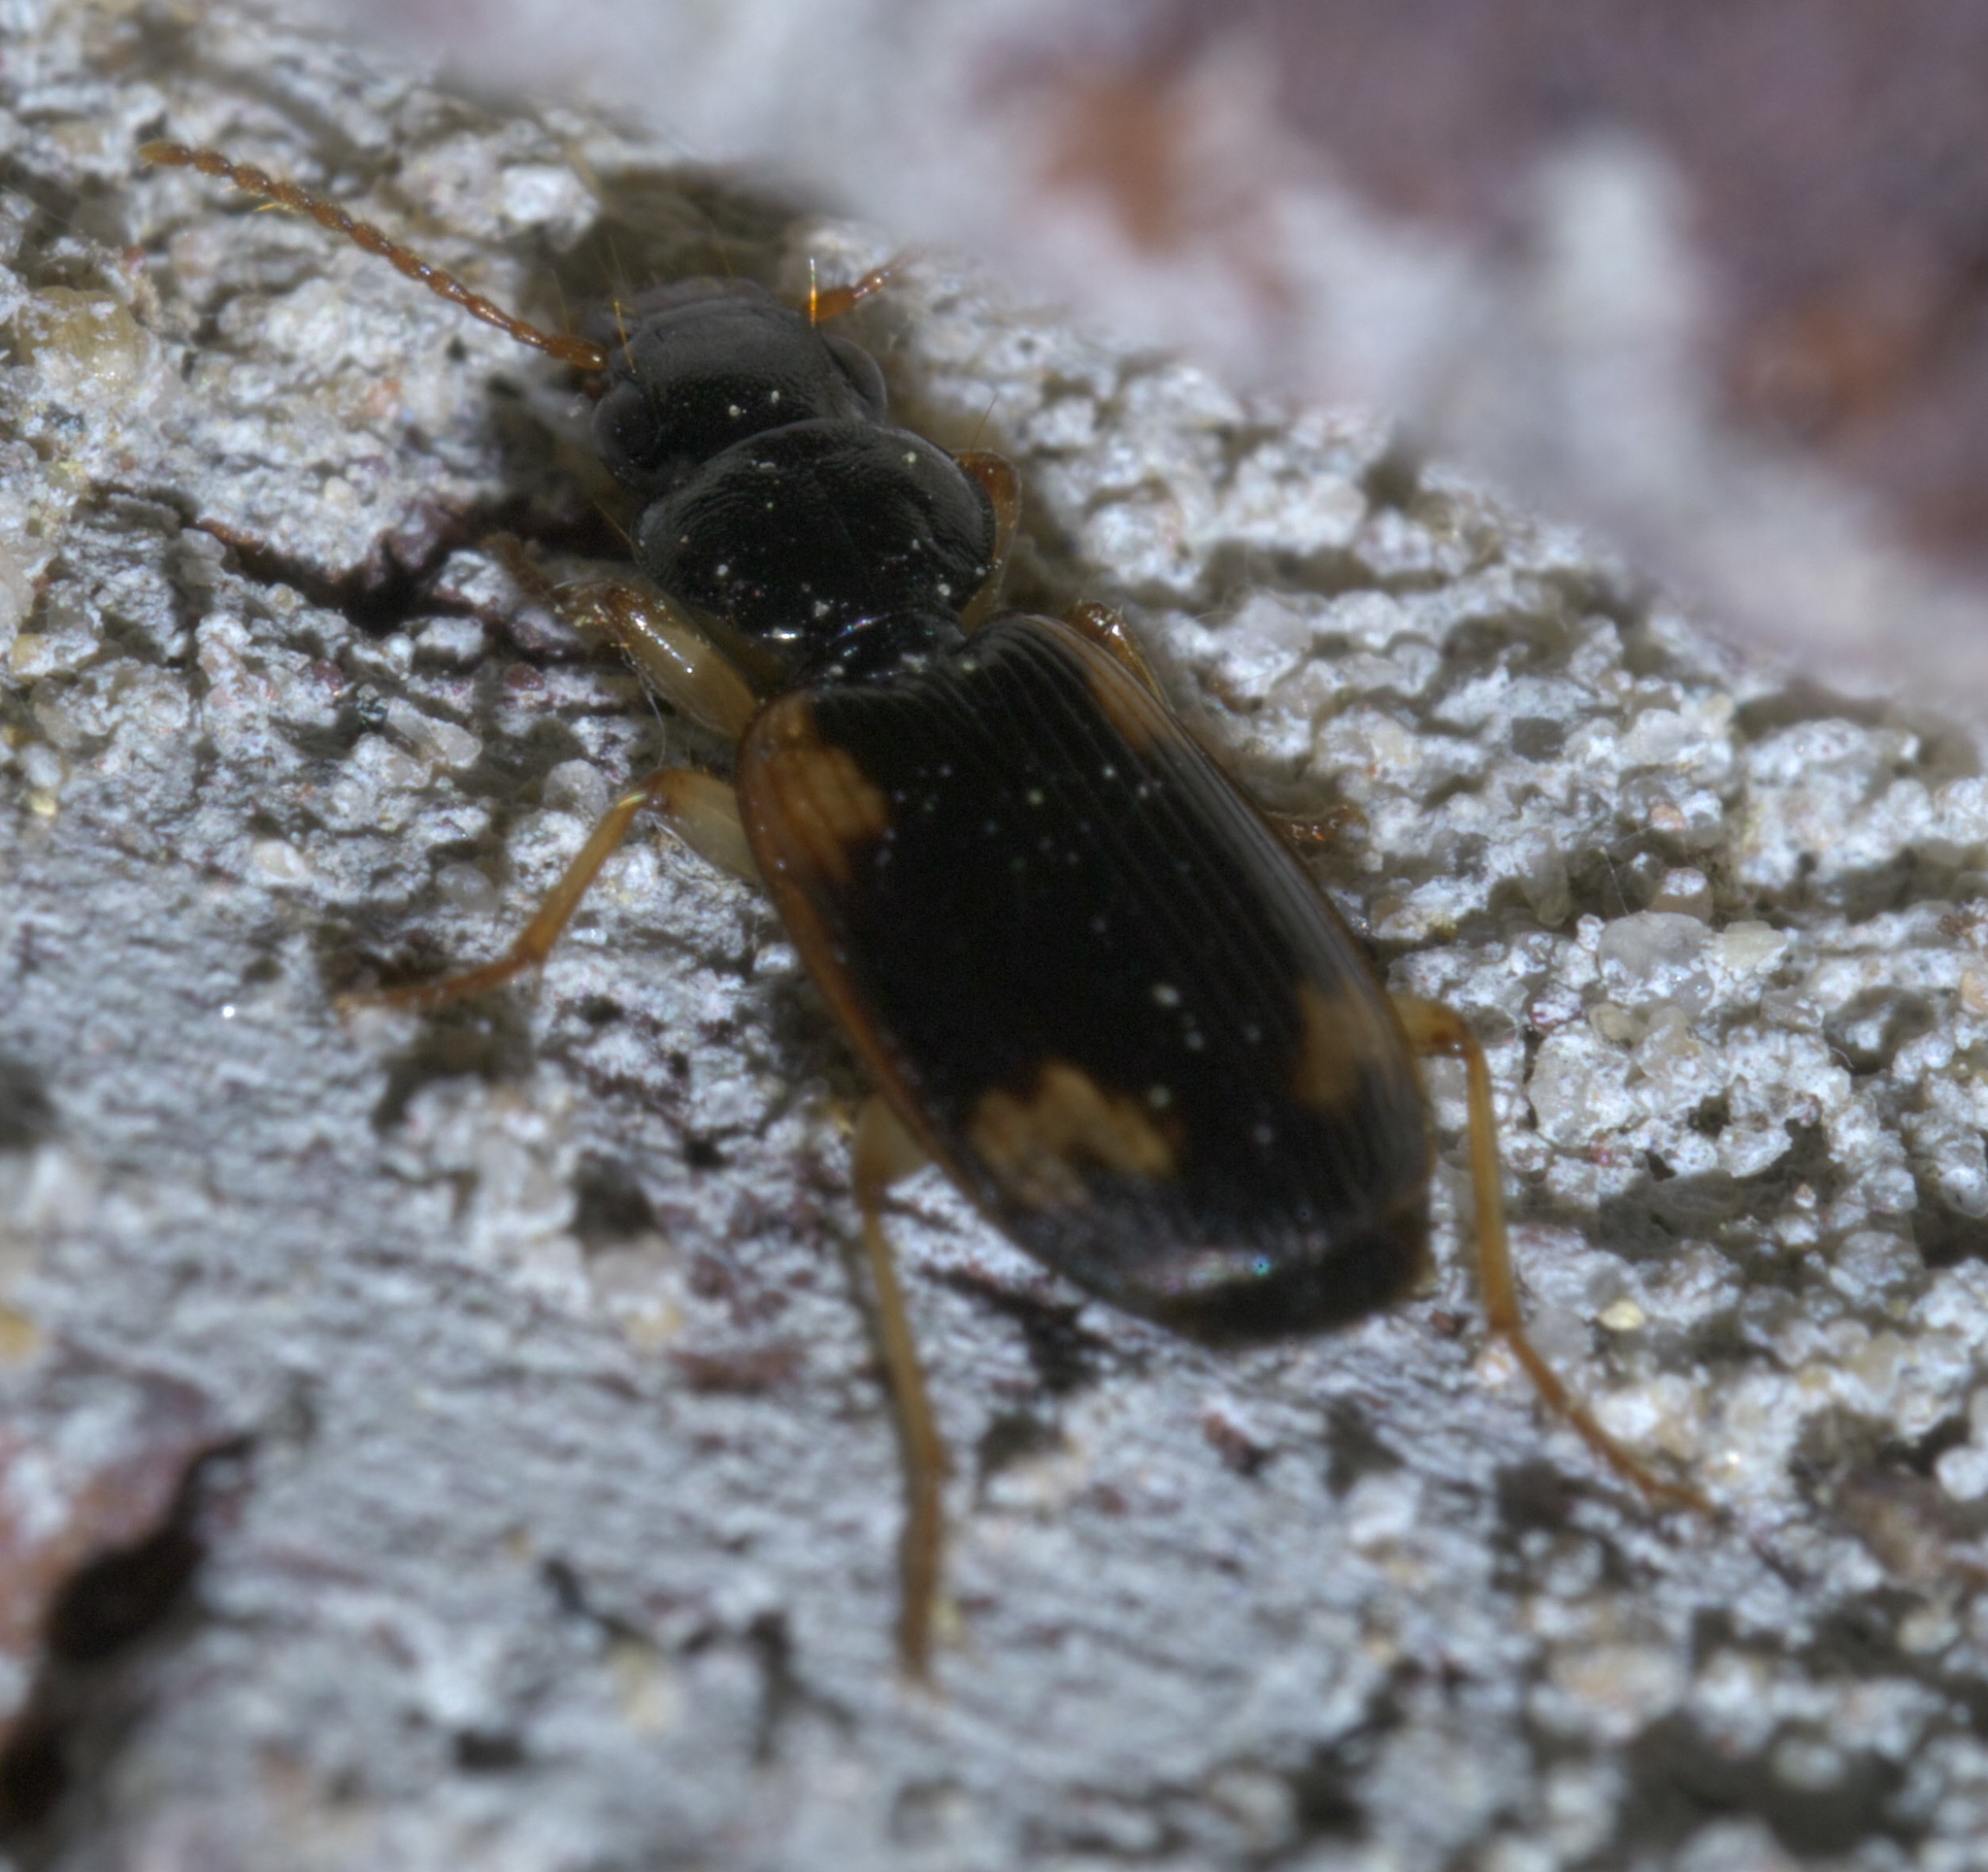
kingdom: Animalia
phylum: Arthropoda
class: Insecta
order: Coleoptera
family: Carabidae
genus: Apenes
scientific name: Apenes sinuata
